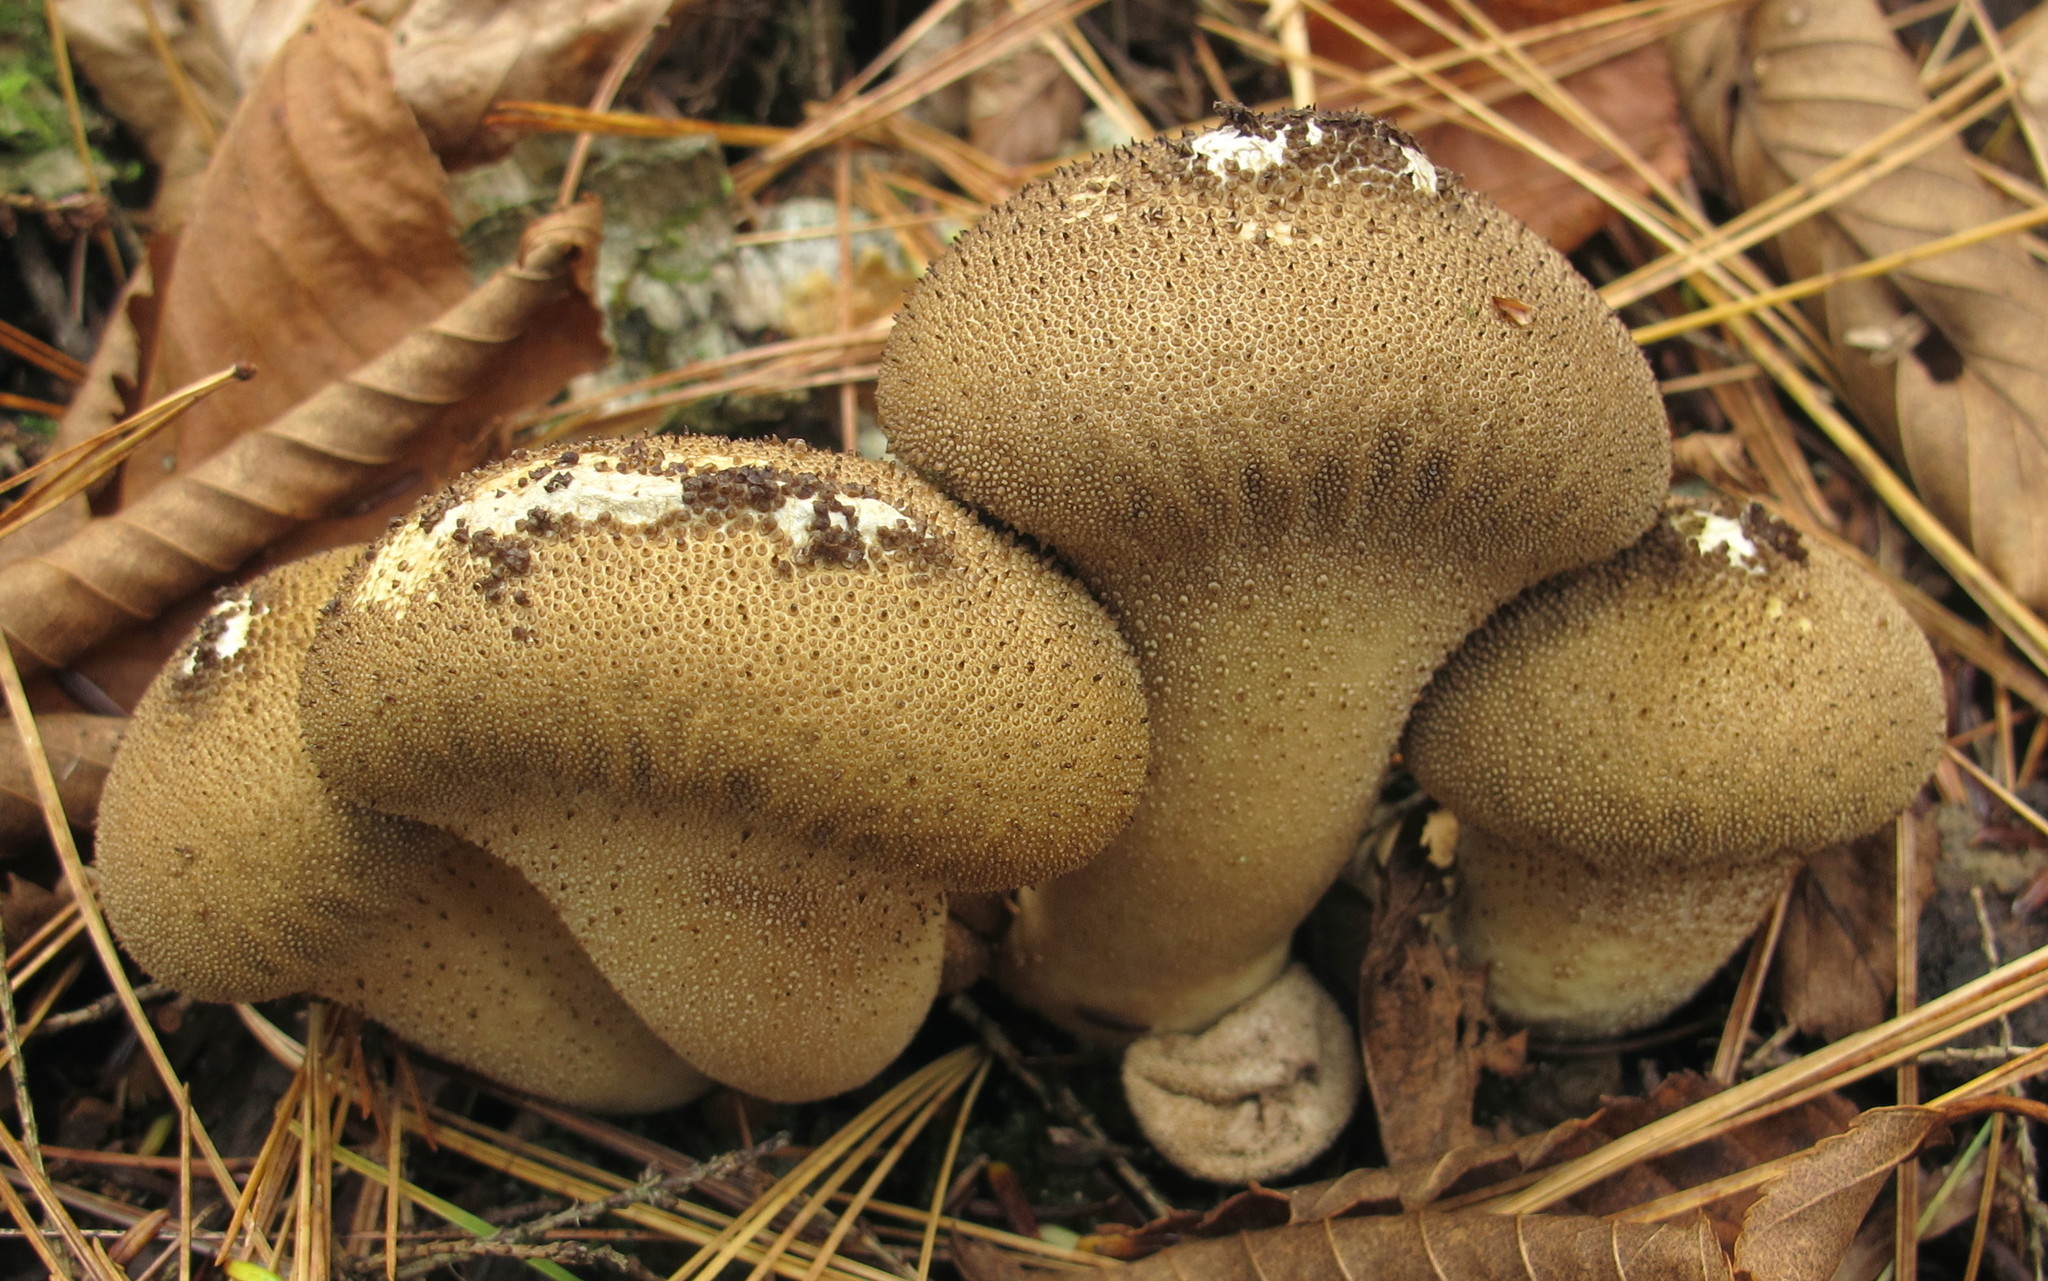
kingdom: Fungi
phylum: Basidiomycota
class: Agaricomycetes
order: Agaricales
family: Lycoperdaceae
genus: Lycoperdon
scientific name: Lycoperdon perlatum
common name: Common puffball
